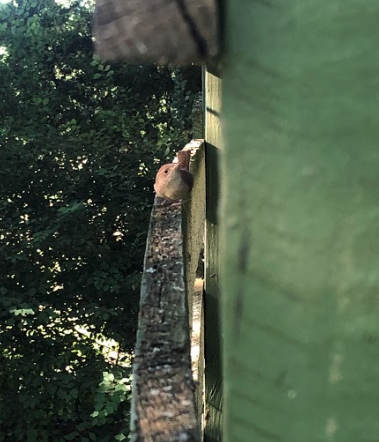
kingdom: Animalia
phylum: Chordata
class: Aves
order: Passeriformes
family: Troglodytidae
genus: Troglodytes
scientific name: Troglodytes aedon
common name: House wren
